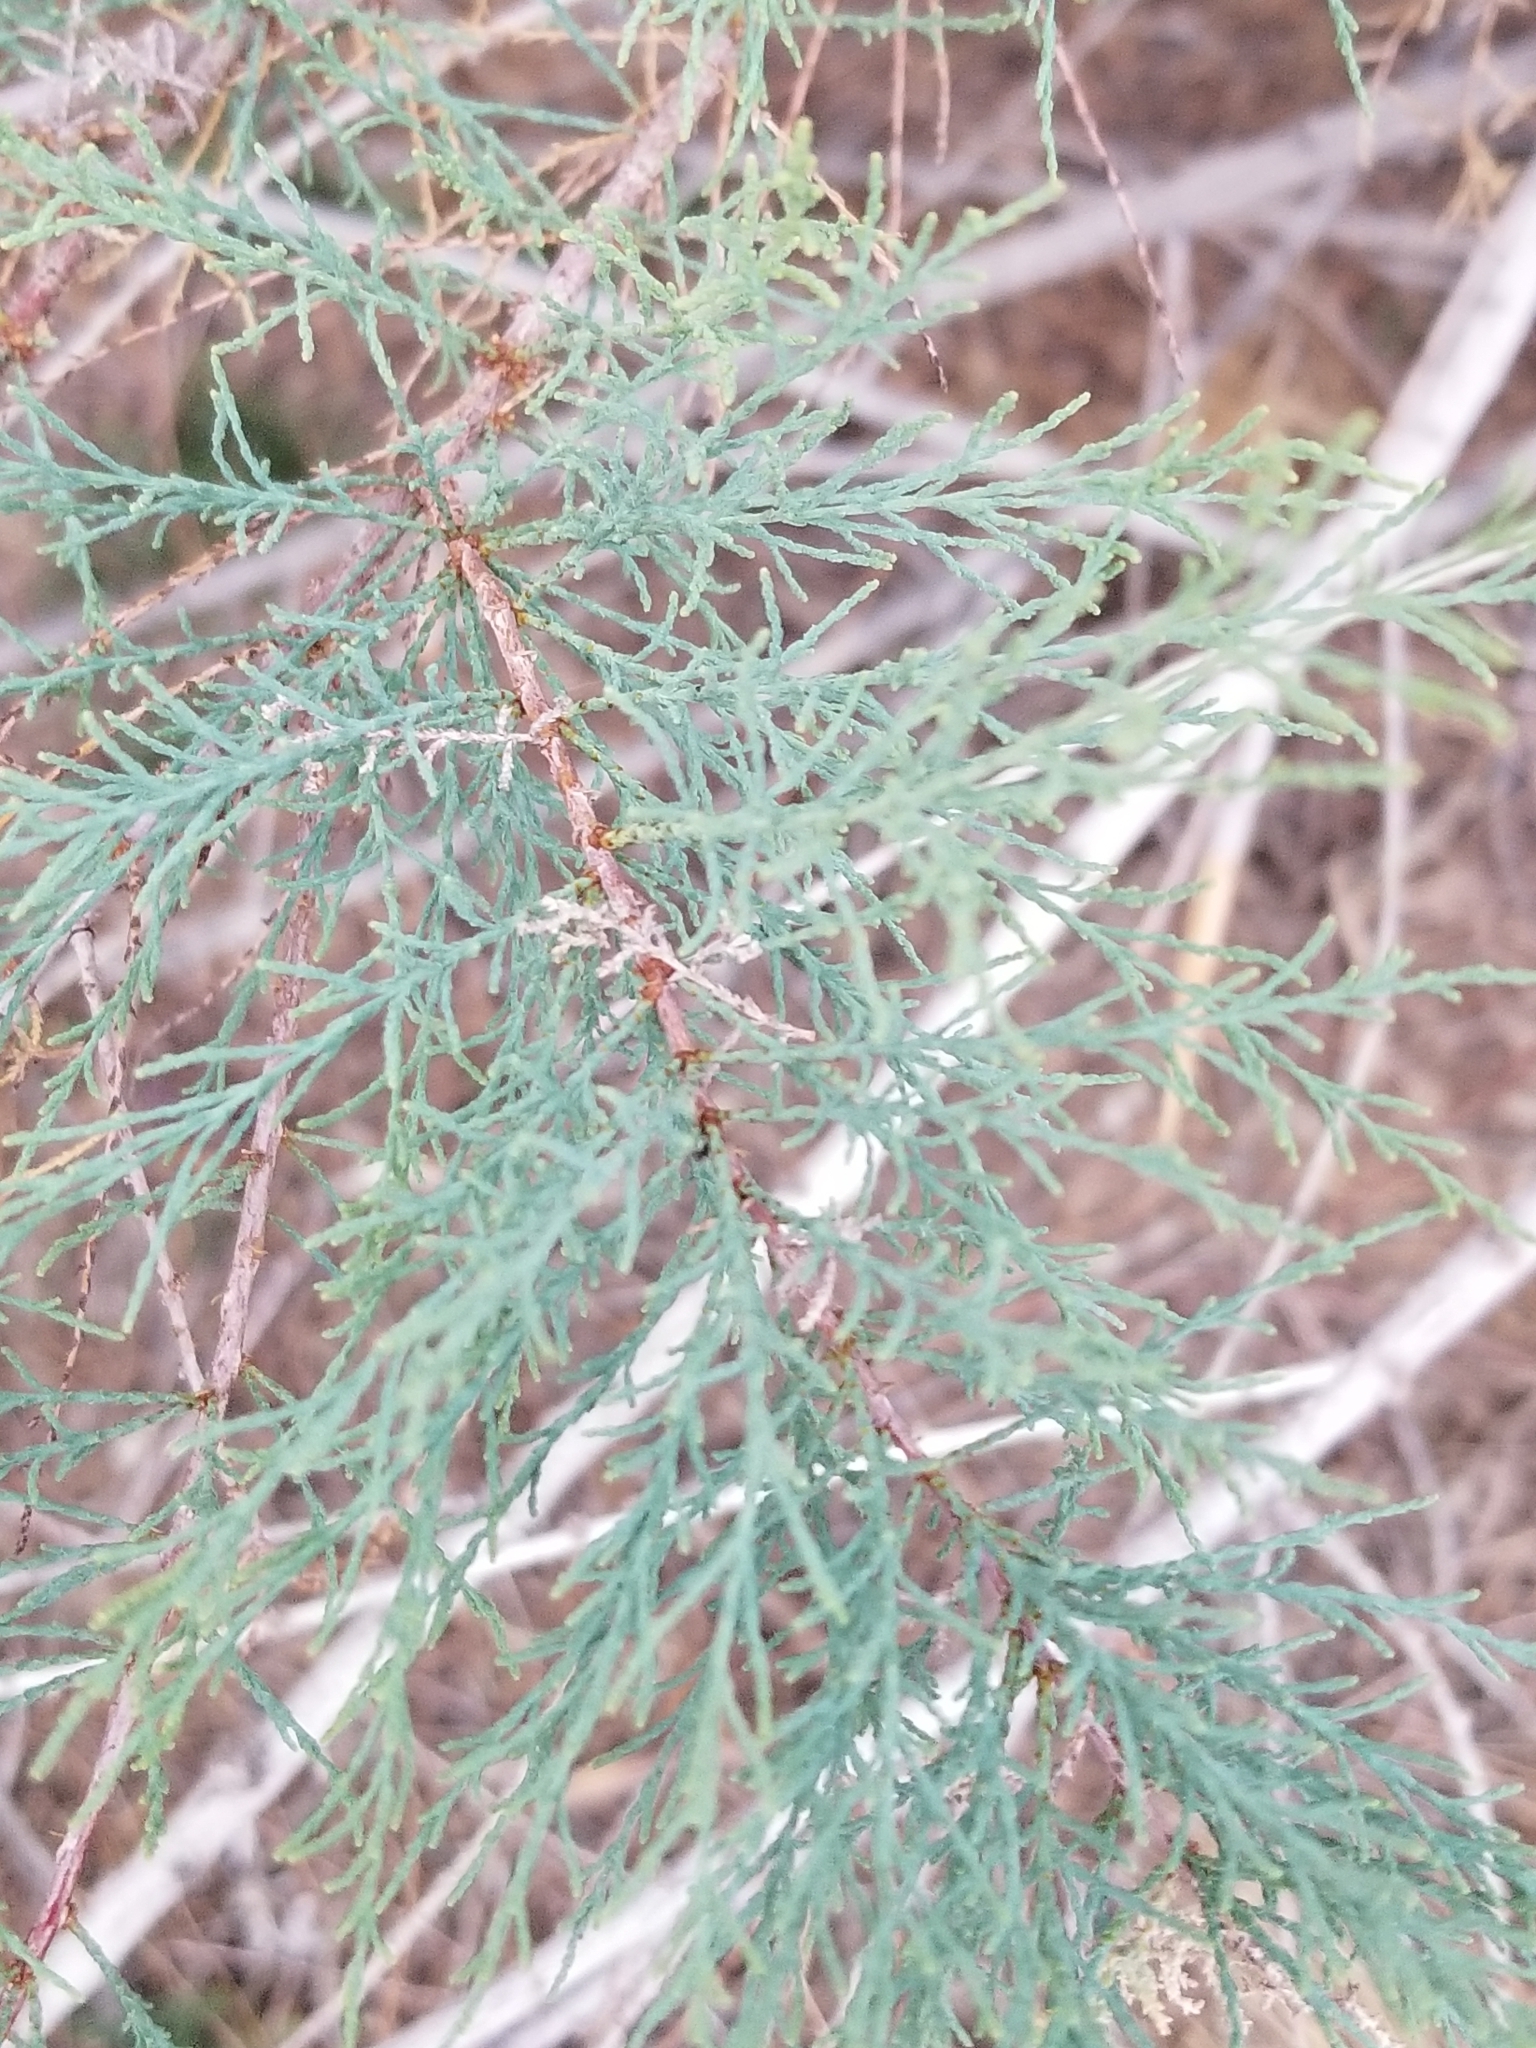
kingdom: Plantae
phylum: Tracheophyta
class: Magnoliopsida
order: Caryophyllales
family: Tamaricaceae
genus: Tamarix
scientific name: Tamarix ramosissima
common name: Pink tamarisk
